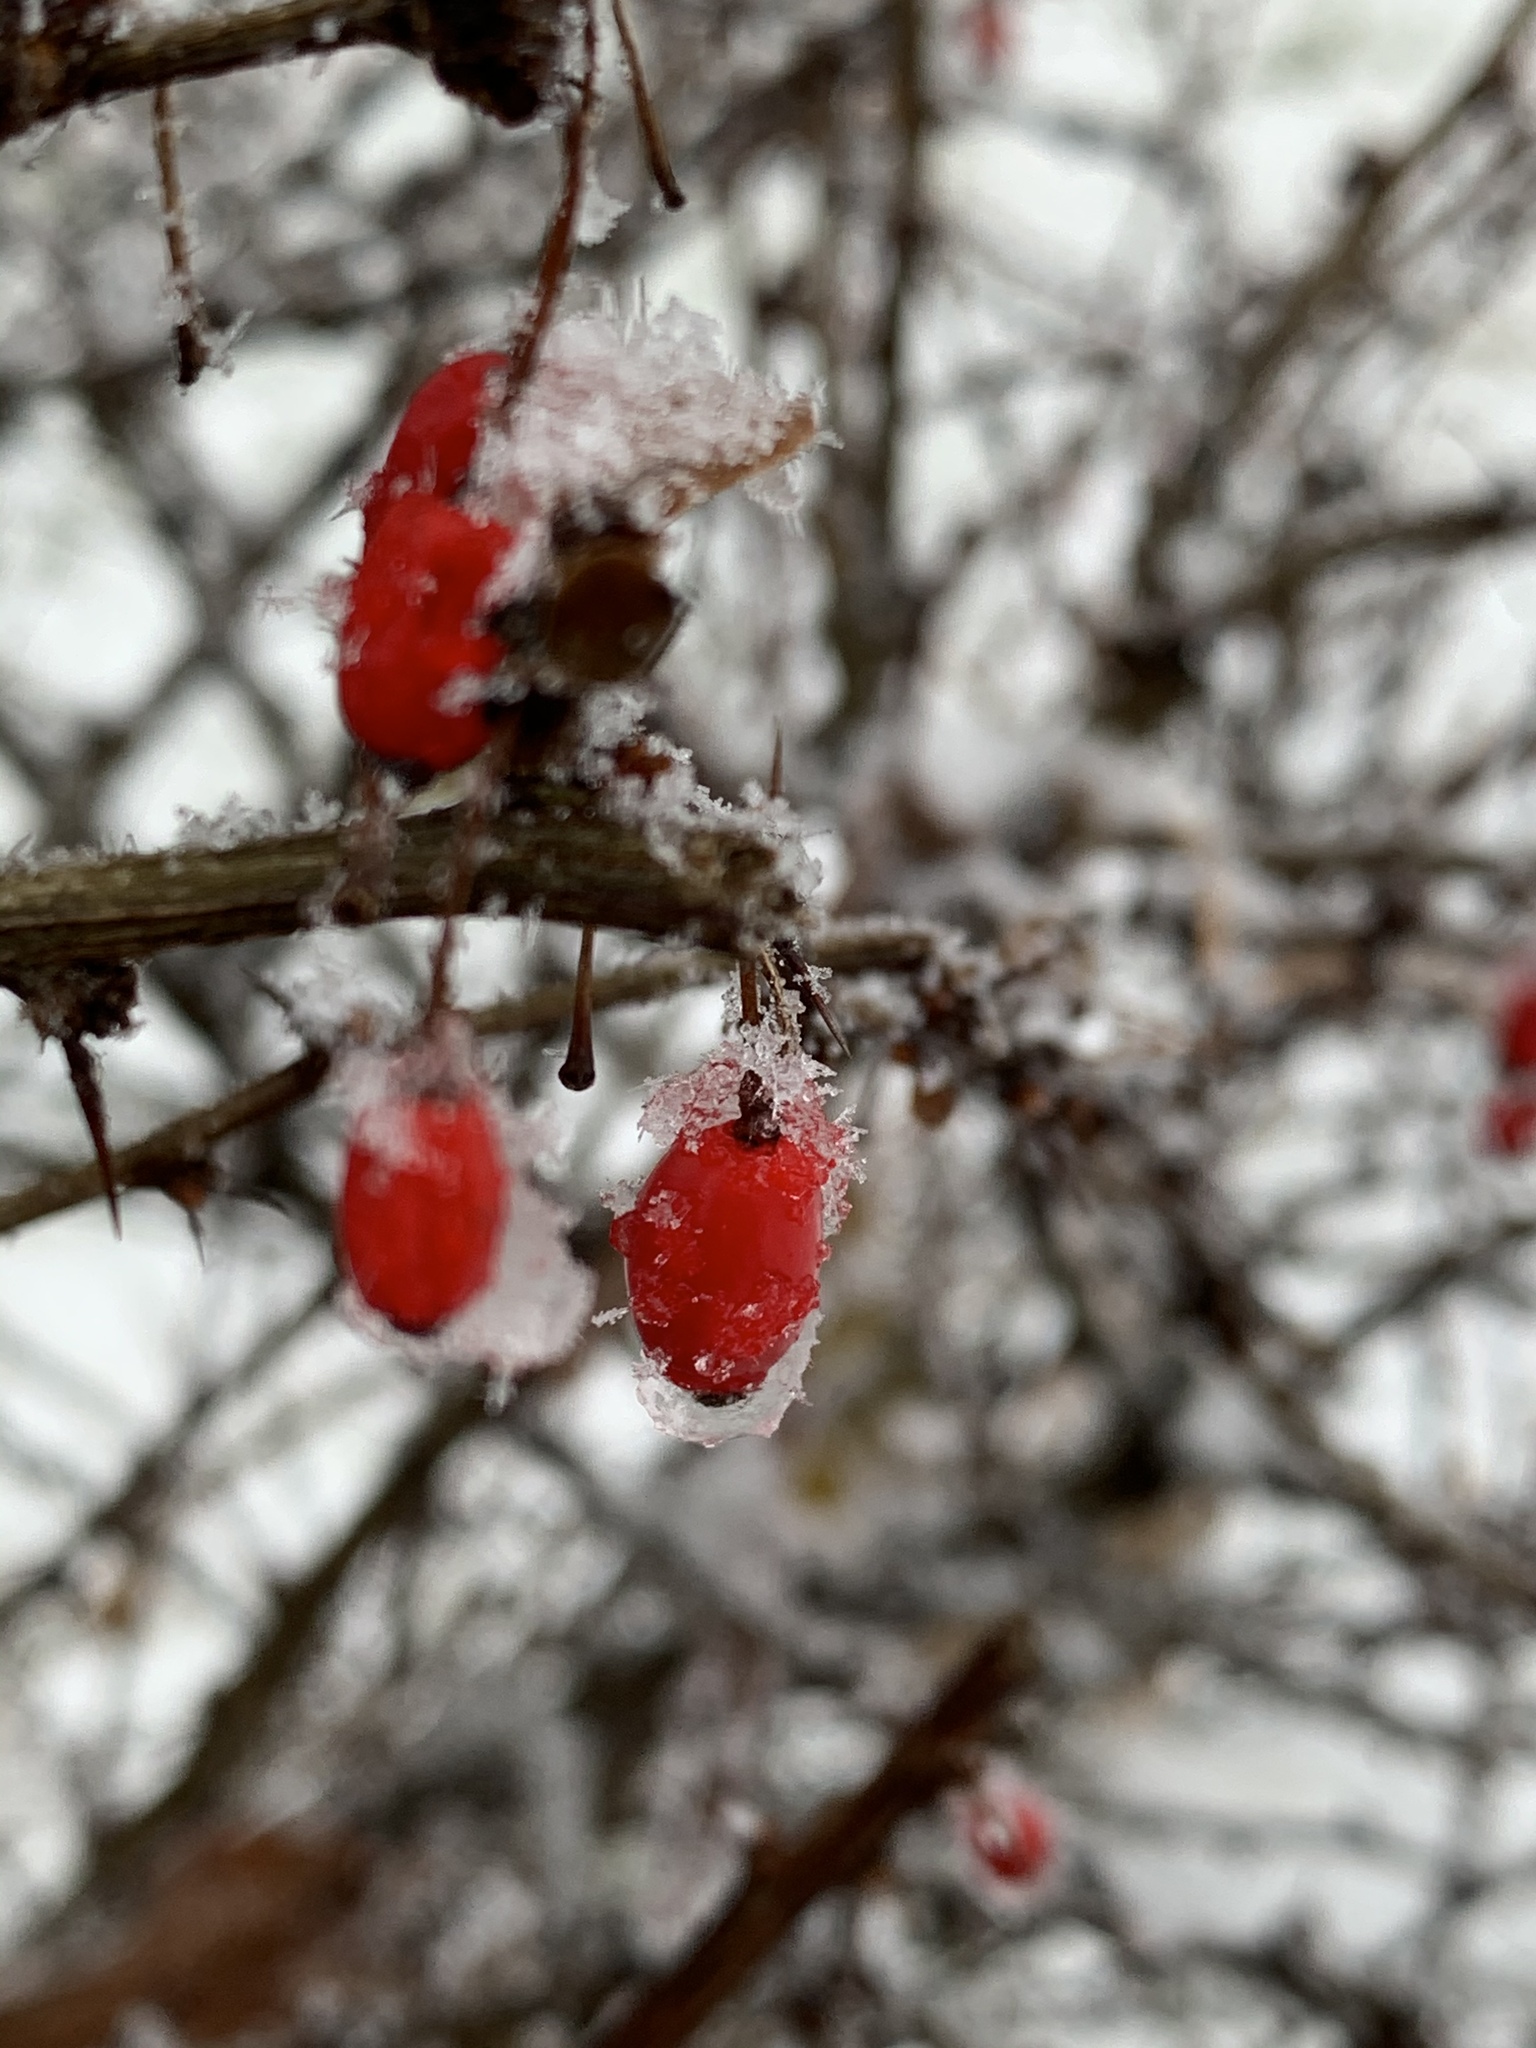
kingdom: Plantae
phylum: Tracheophyta
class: Magnoliopsida
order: Ranunculales
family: Berberidaceae
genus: Berberis
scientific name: Berberis thunbergii
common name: Japanese barberry
